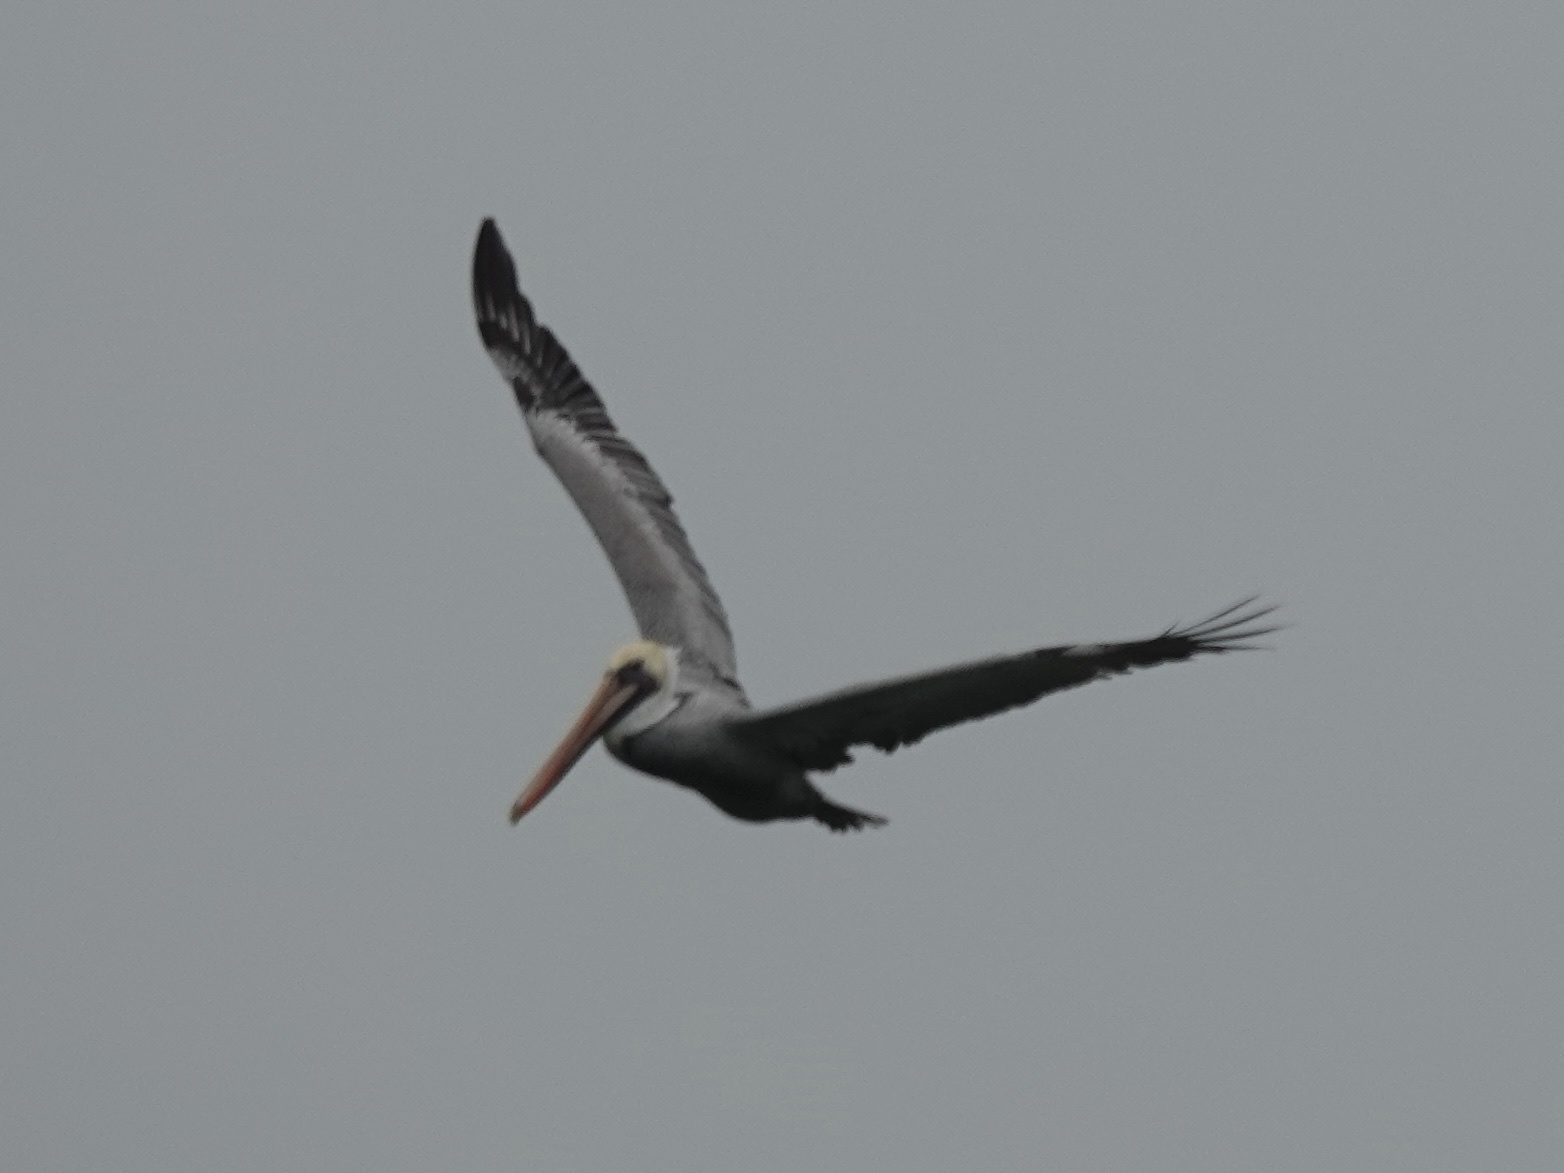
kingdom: Animalia
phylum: Chordata
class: Aves
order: Pelecaniformes
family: Pelecanidae
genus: Pelecanus
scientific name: Pelecanus occidentalis
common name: Brown pelican
